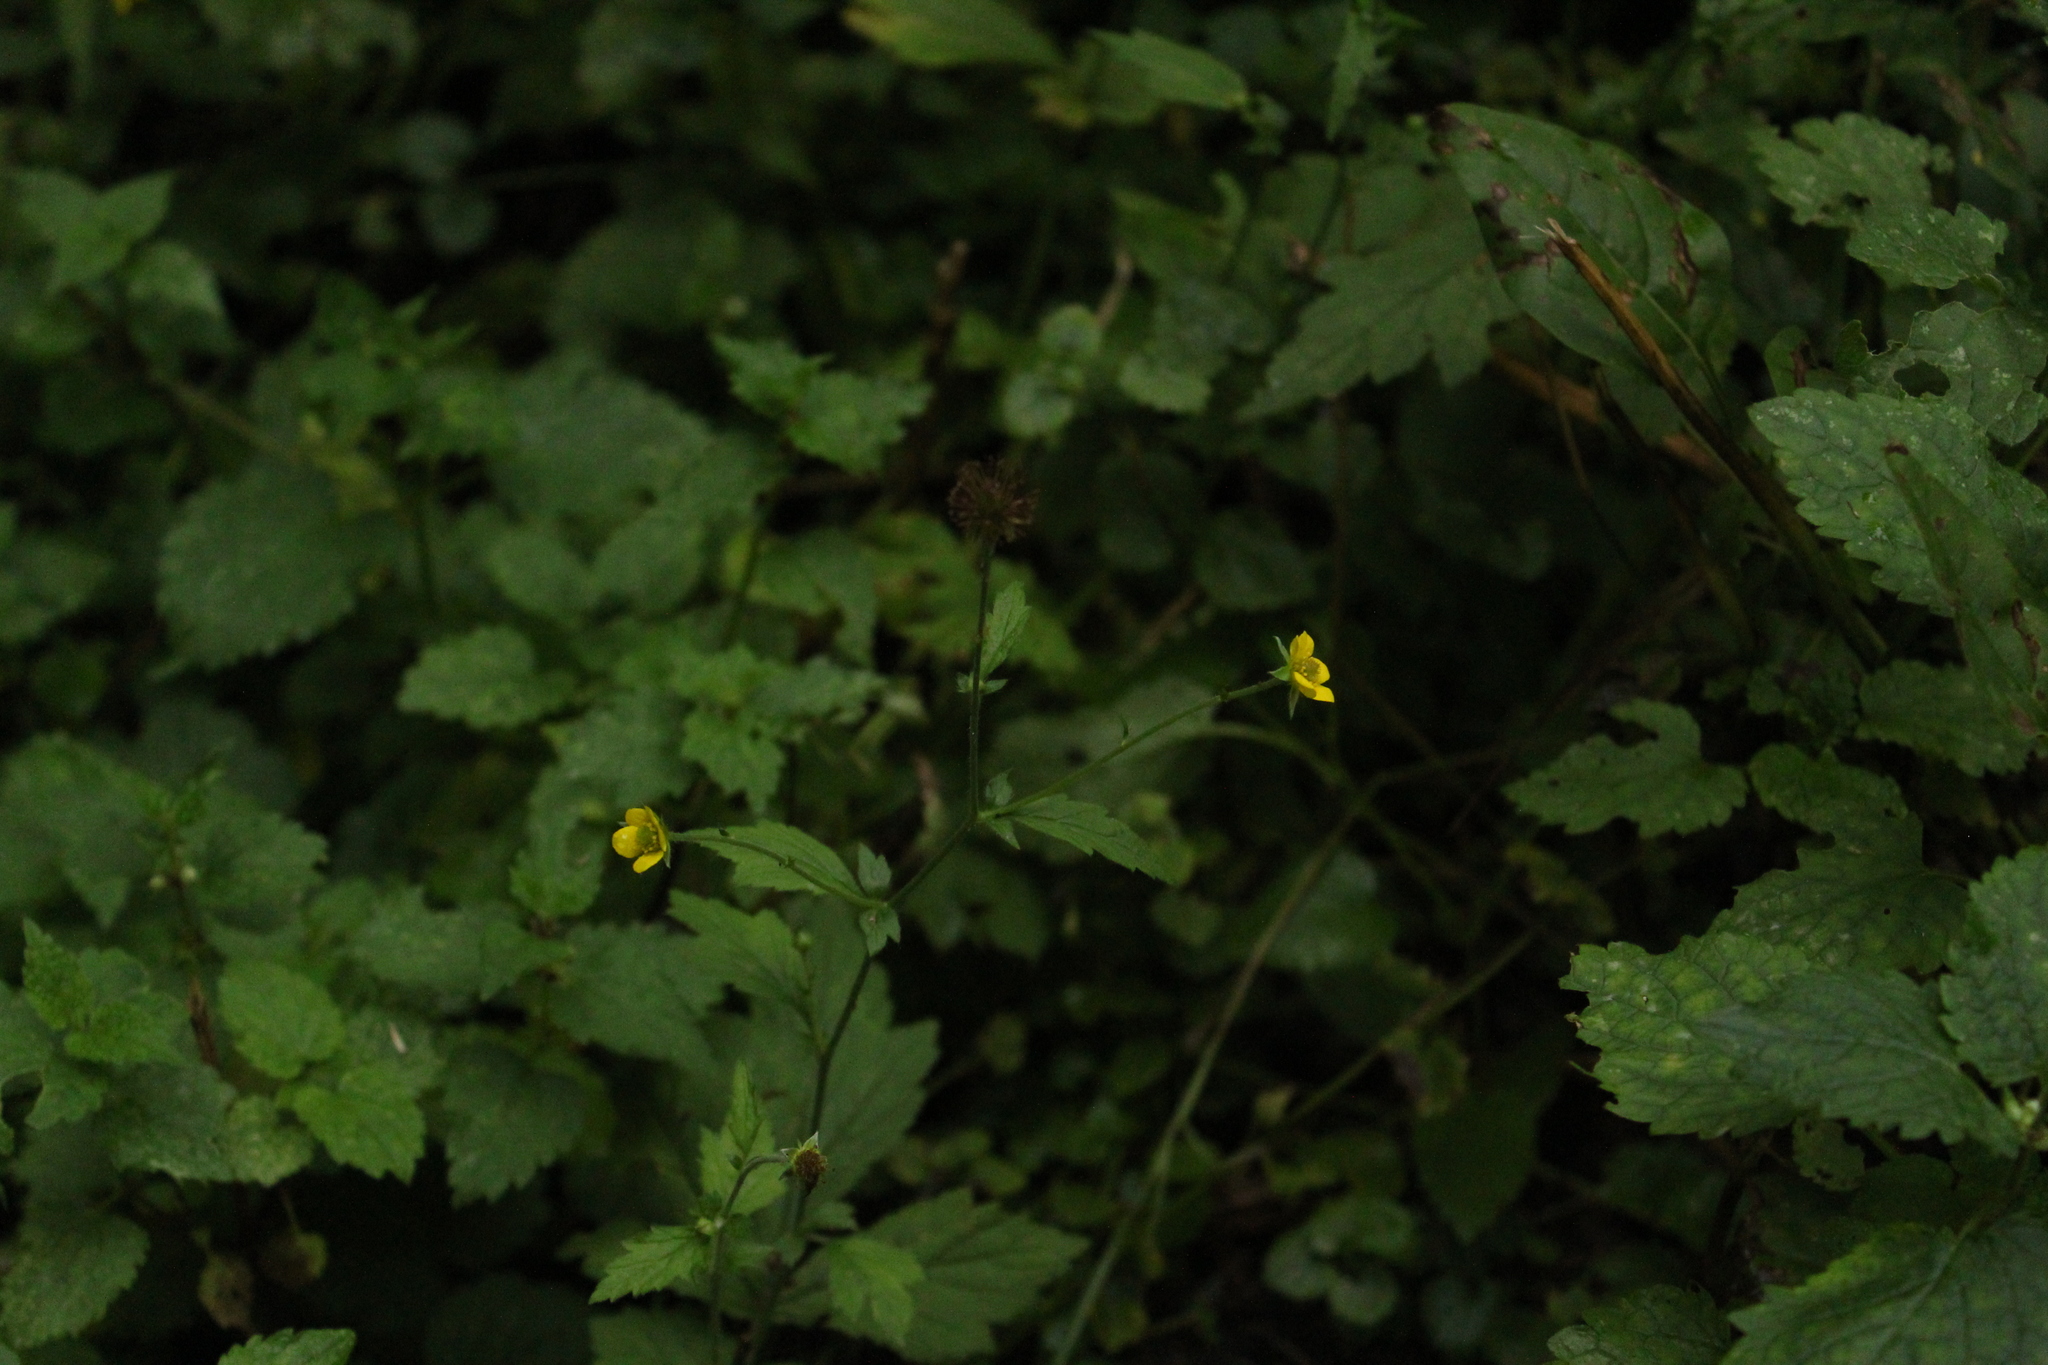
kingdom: Plantae
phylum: Tracheophyta
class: Magnoliopsida
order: Rosales
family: Rosaceae
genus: Geum
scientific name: Geum urbanum
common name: Wood avens
